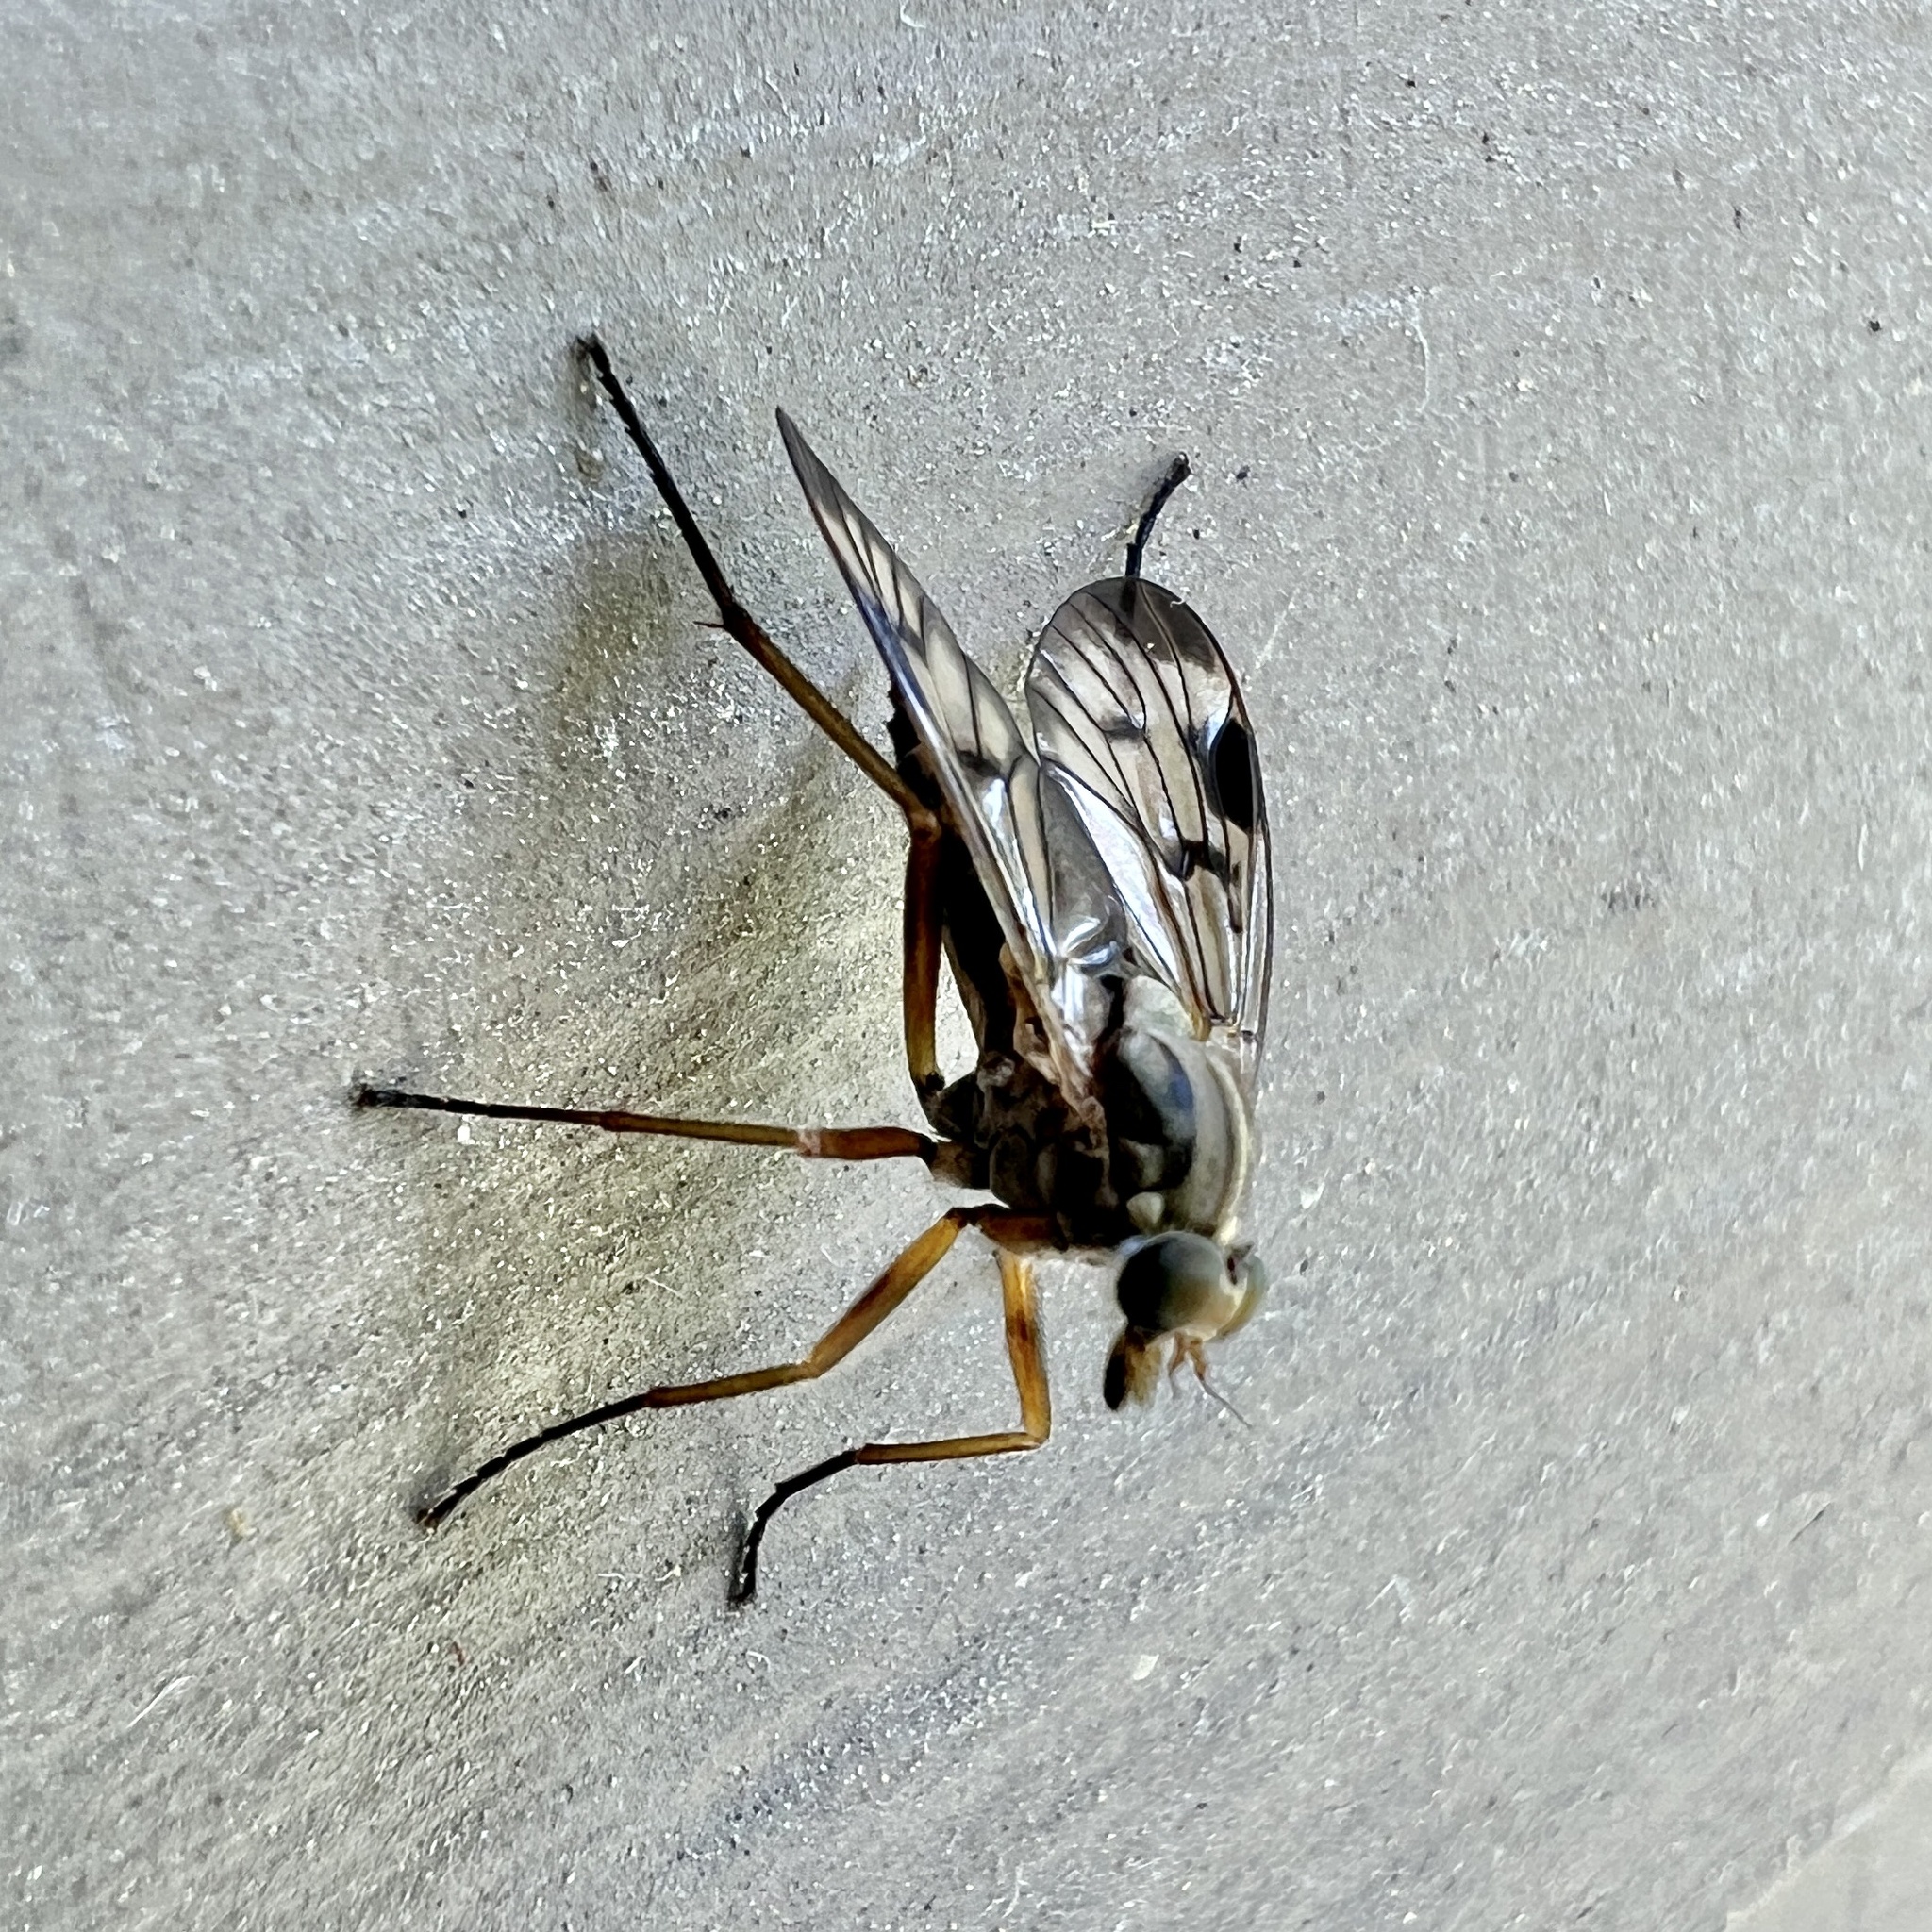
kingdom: Animalia
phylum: Arthropoda
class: Insecta
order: Diptera
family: Rhagionidae
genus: Rhagio
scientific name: Rhagio scolopacea
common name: Downlooker snipefly
